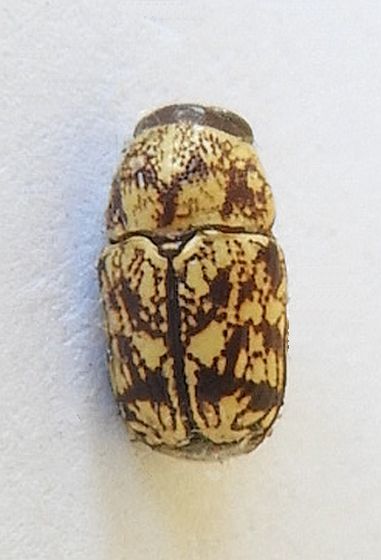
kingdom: Animalia
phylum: Arthropoda
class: Insecta
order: Coleoptera
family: Chrysomelidae
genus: Pachybrachis
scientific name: Pachybrachis chaoticus
